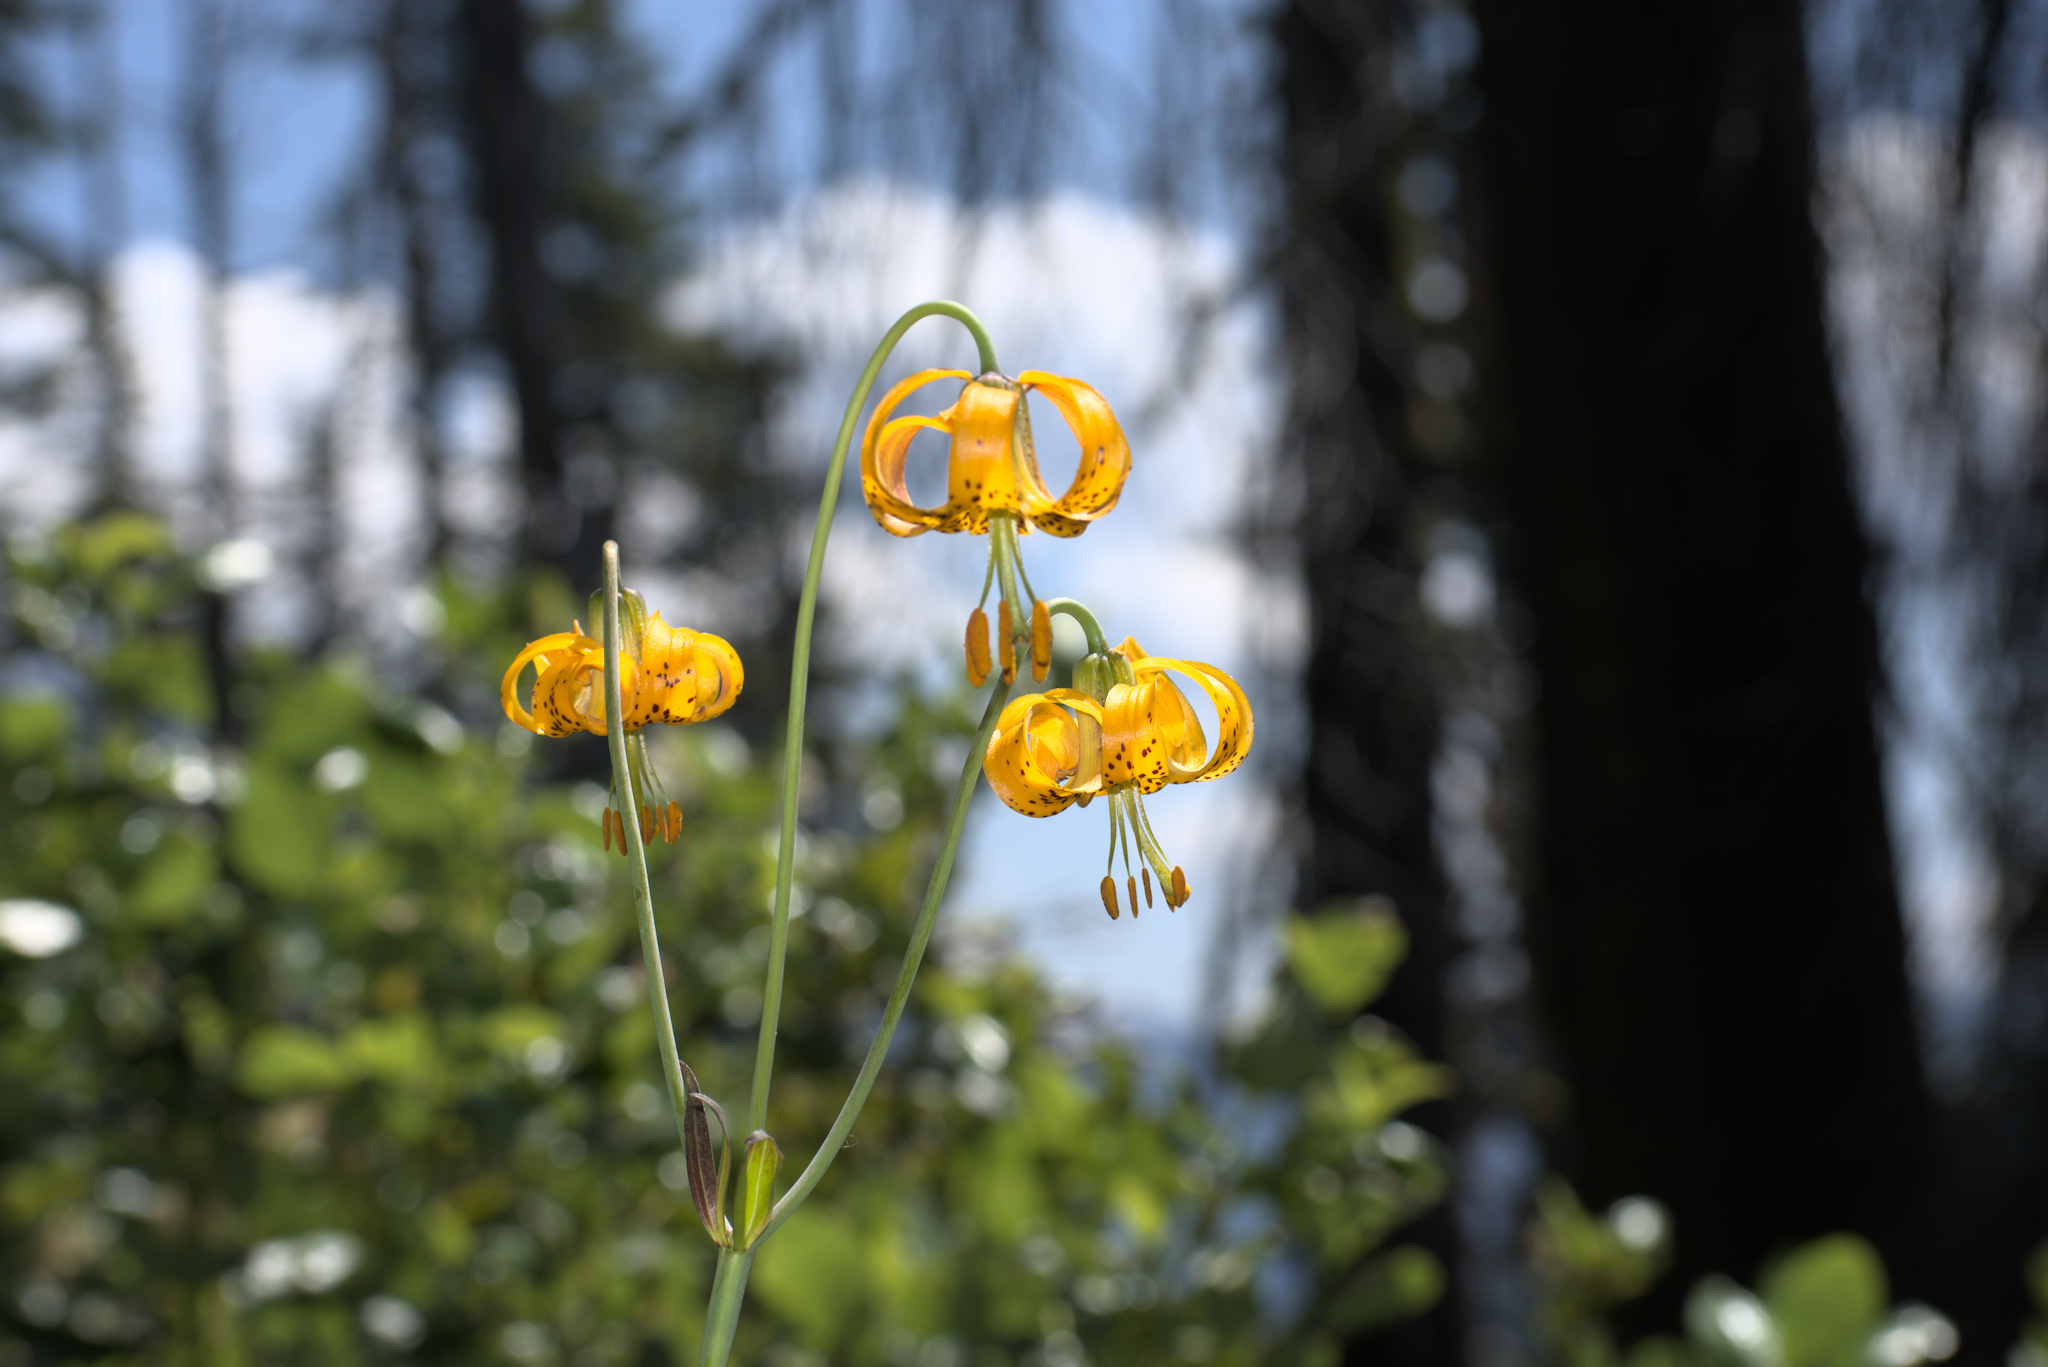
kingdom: Plantae
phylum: Tracheophyta
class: Liliopsida
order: Liliales
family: Liliaceae
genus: Lilium
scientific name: Lilium columbianum
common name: Columbia lily
